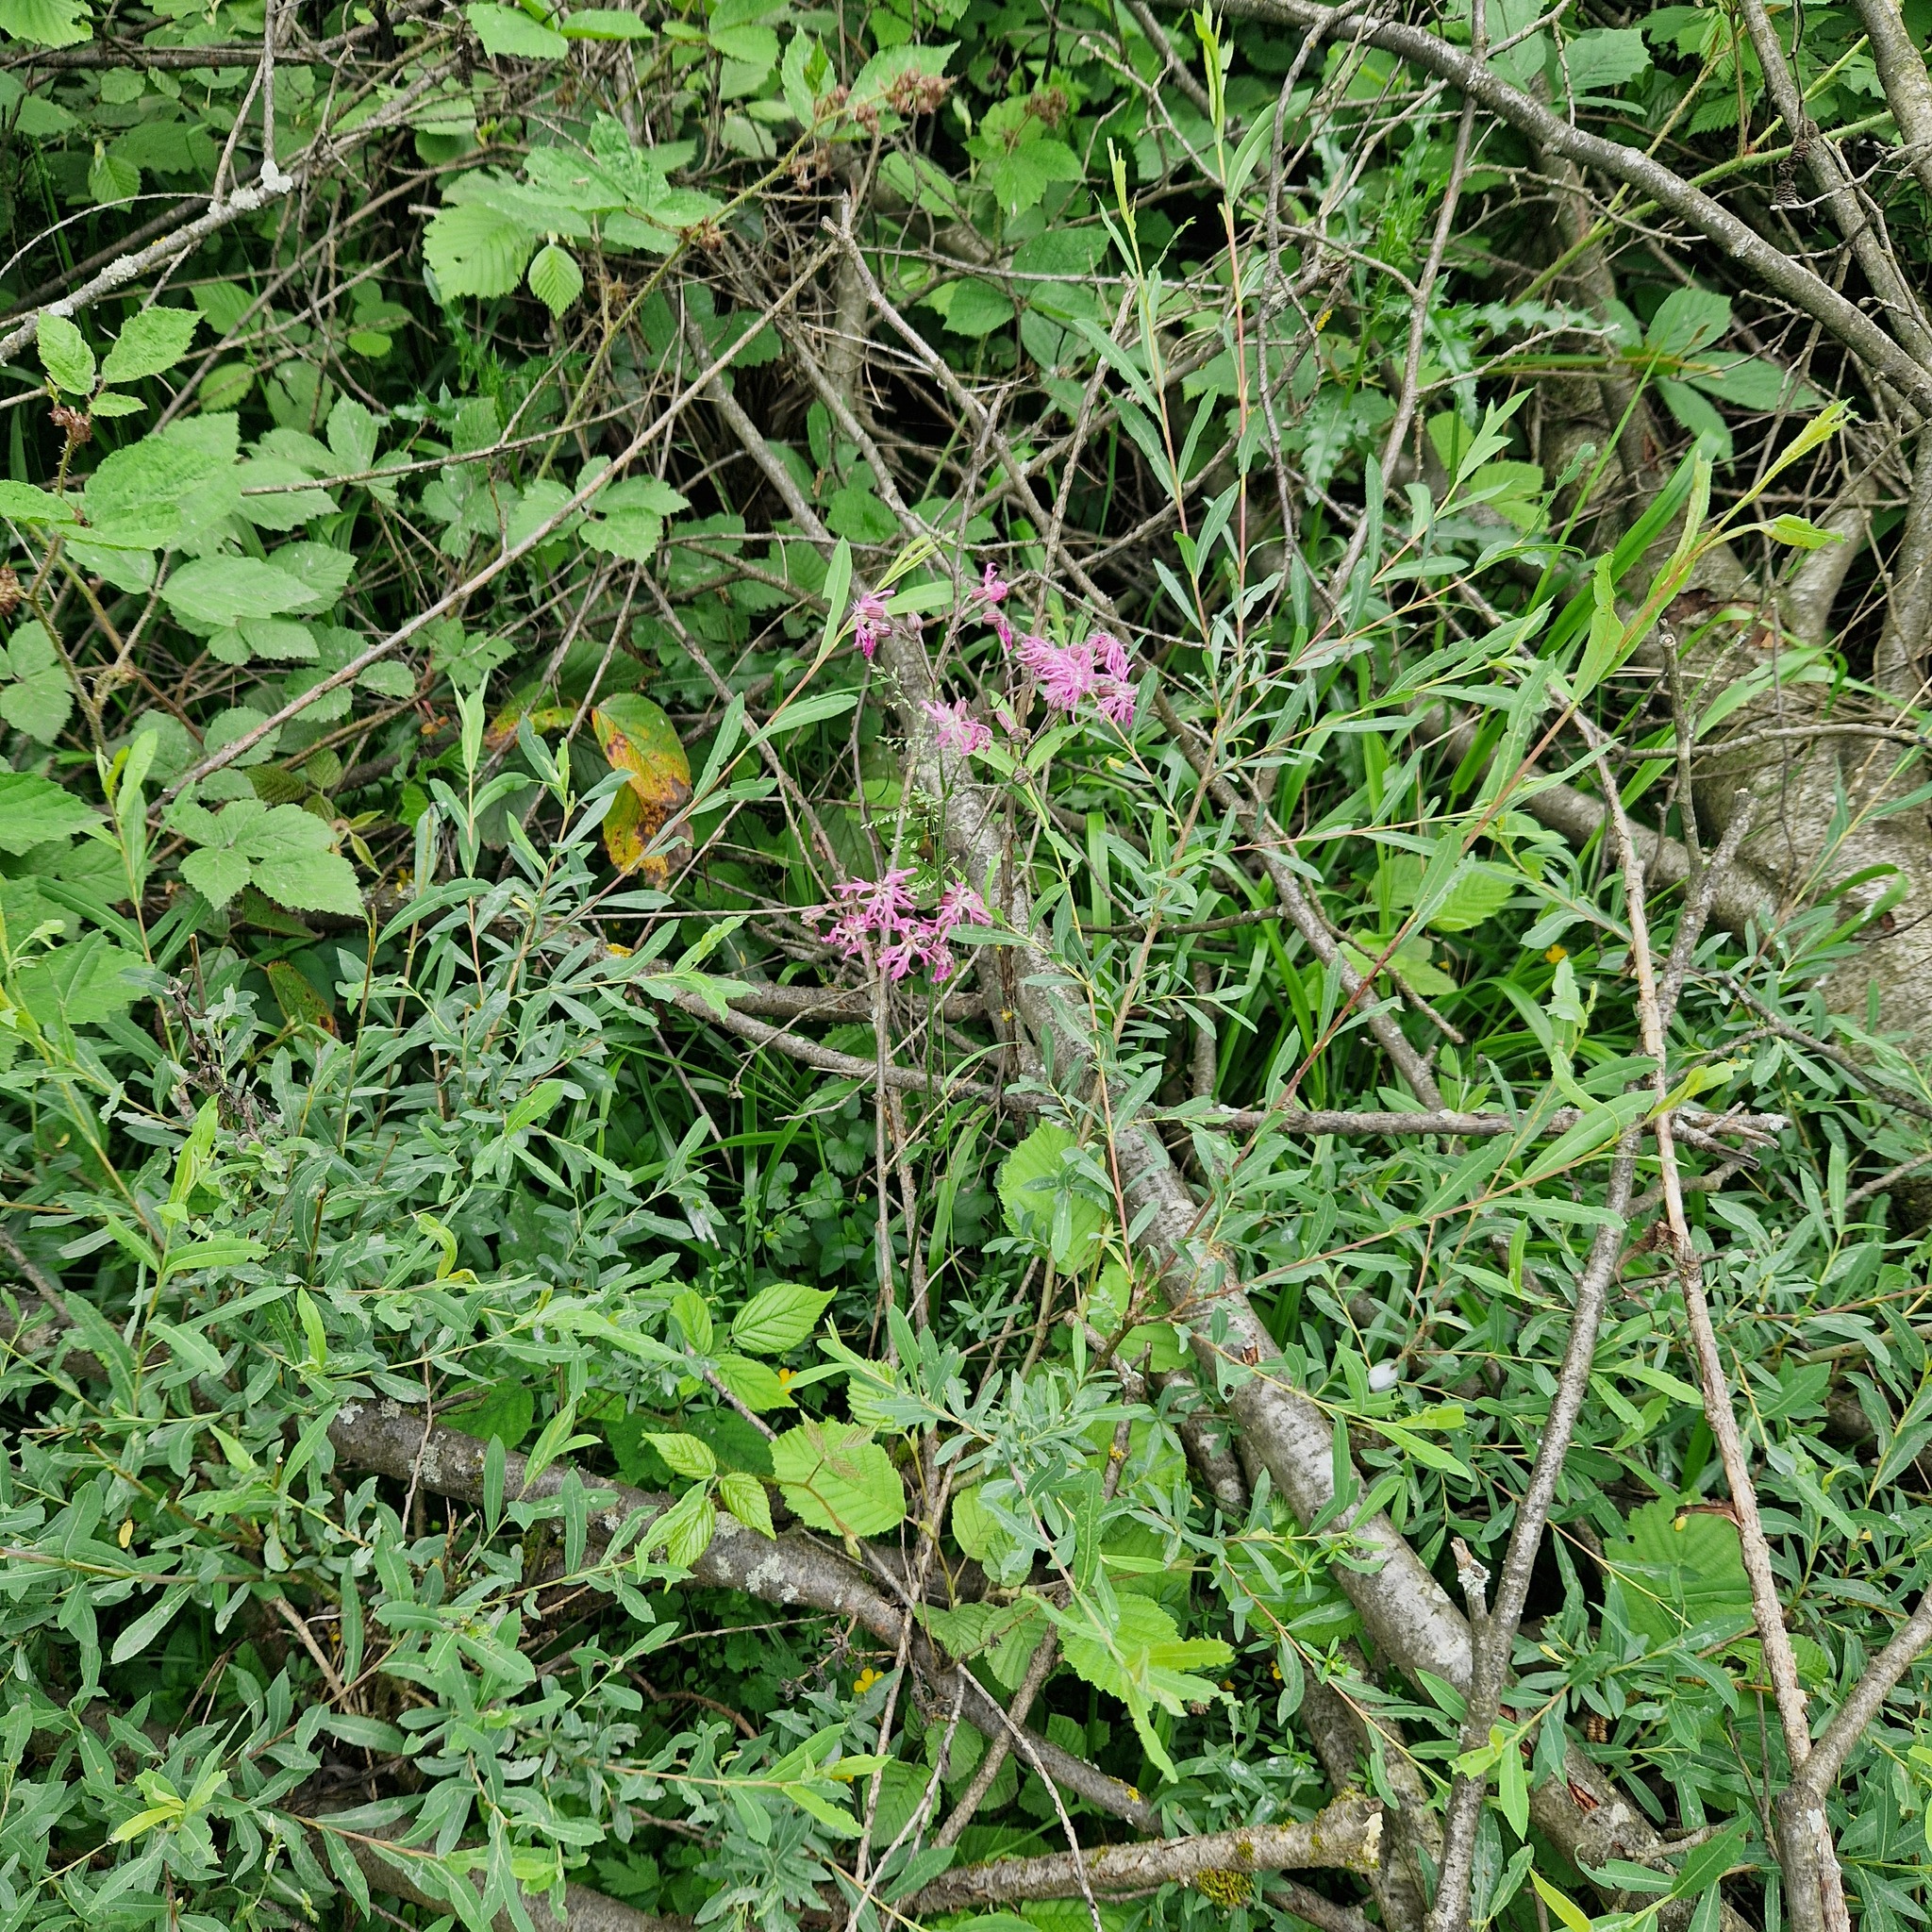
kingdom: Plantae
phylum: Tracheophyta
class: Magnoliopsida
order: Caryophyllales
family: Caryophyllaceae
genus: Silene
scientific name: Silene flos-cuculi
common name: Ragged-robin
